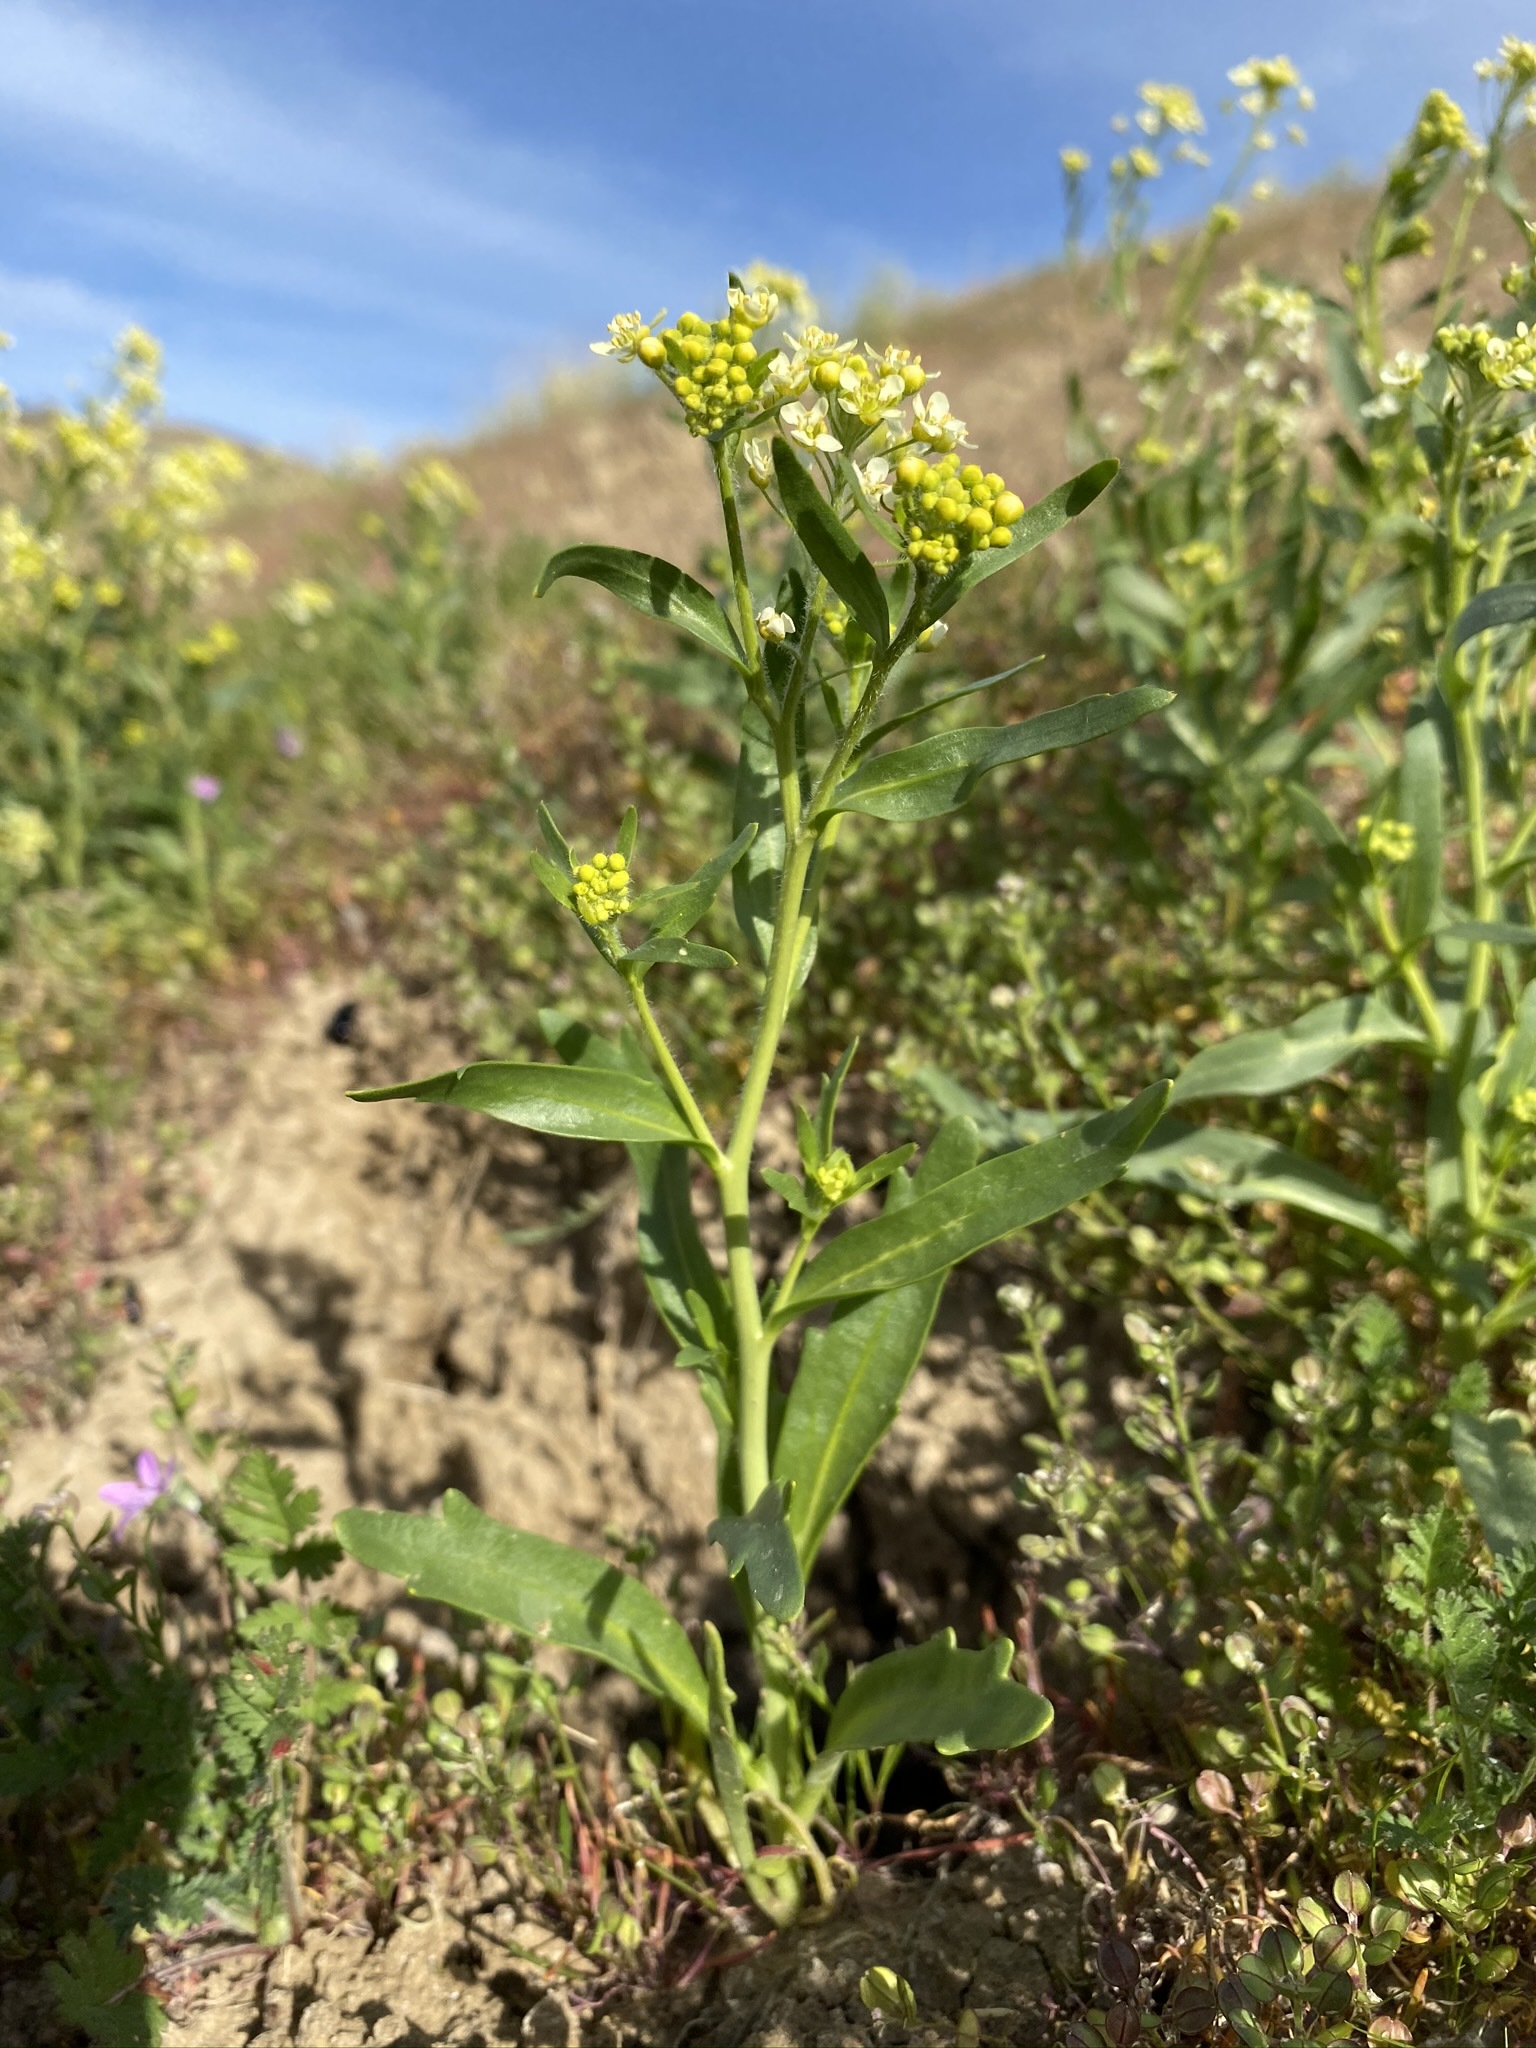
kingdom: Plantae
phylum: Tracheophyta
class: Magnoliopsida
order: Brassicales
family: Brassicaceae
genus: Lepidium
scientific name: Lepidium jaredii
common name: Jared's peppergrass
